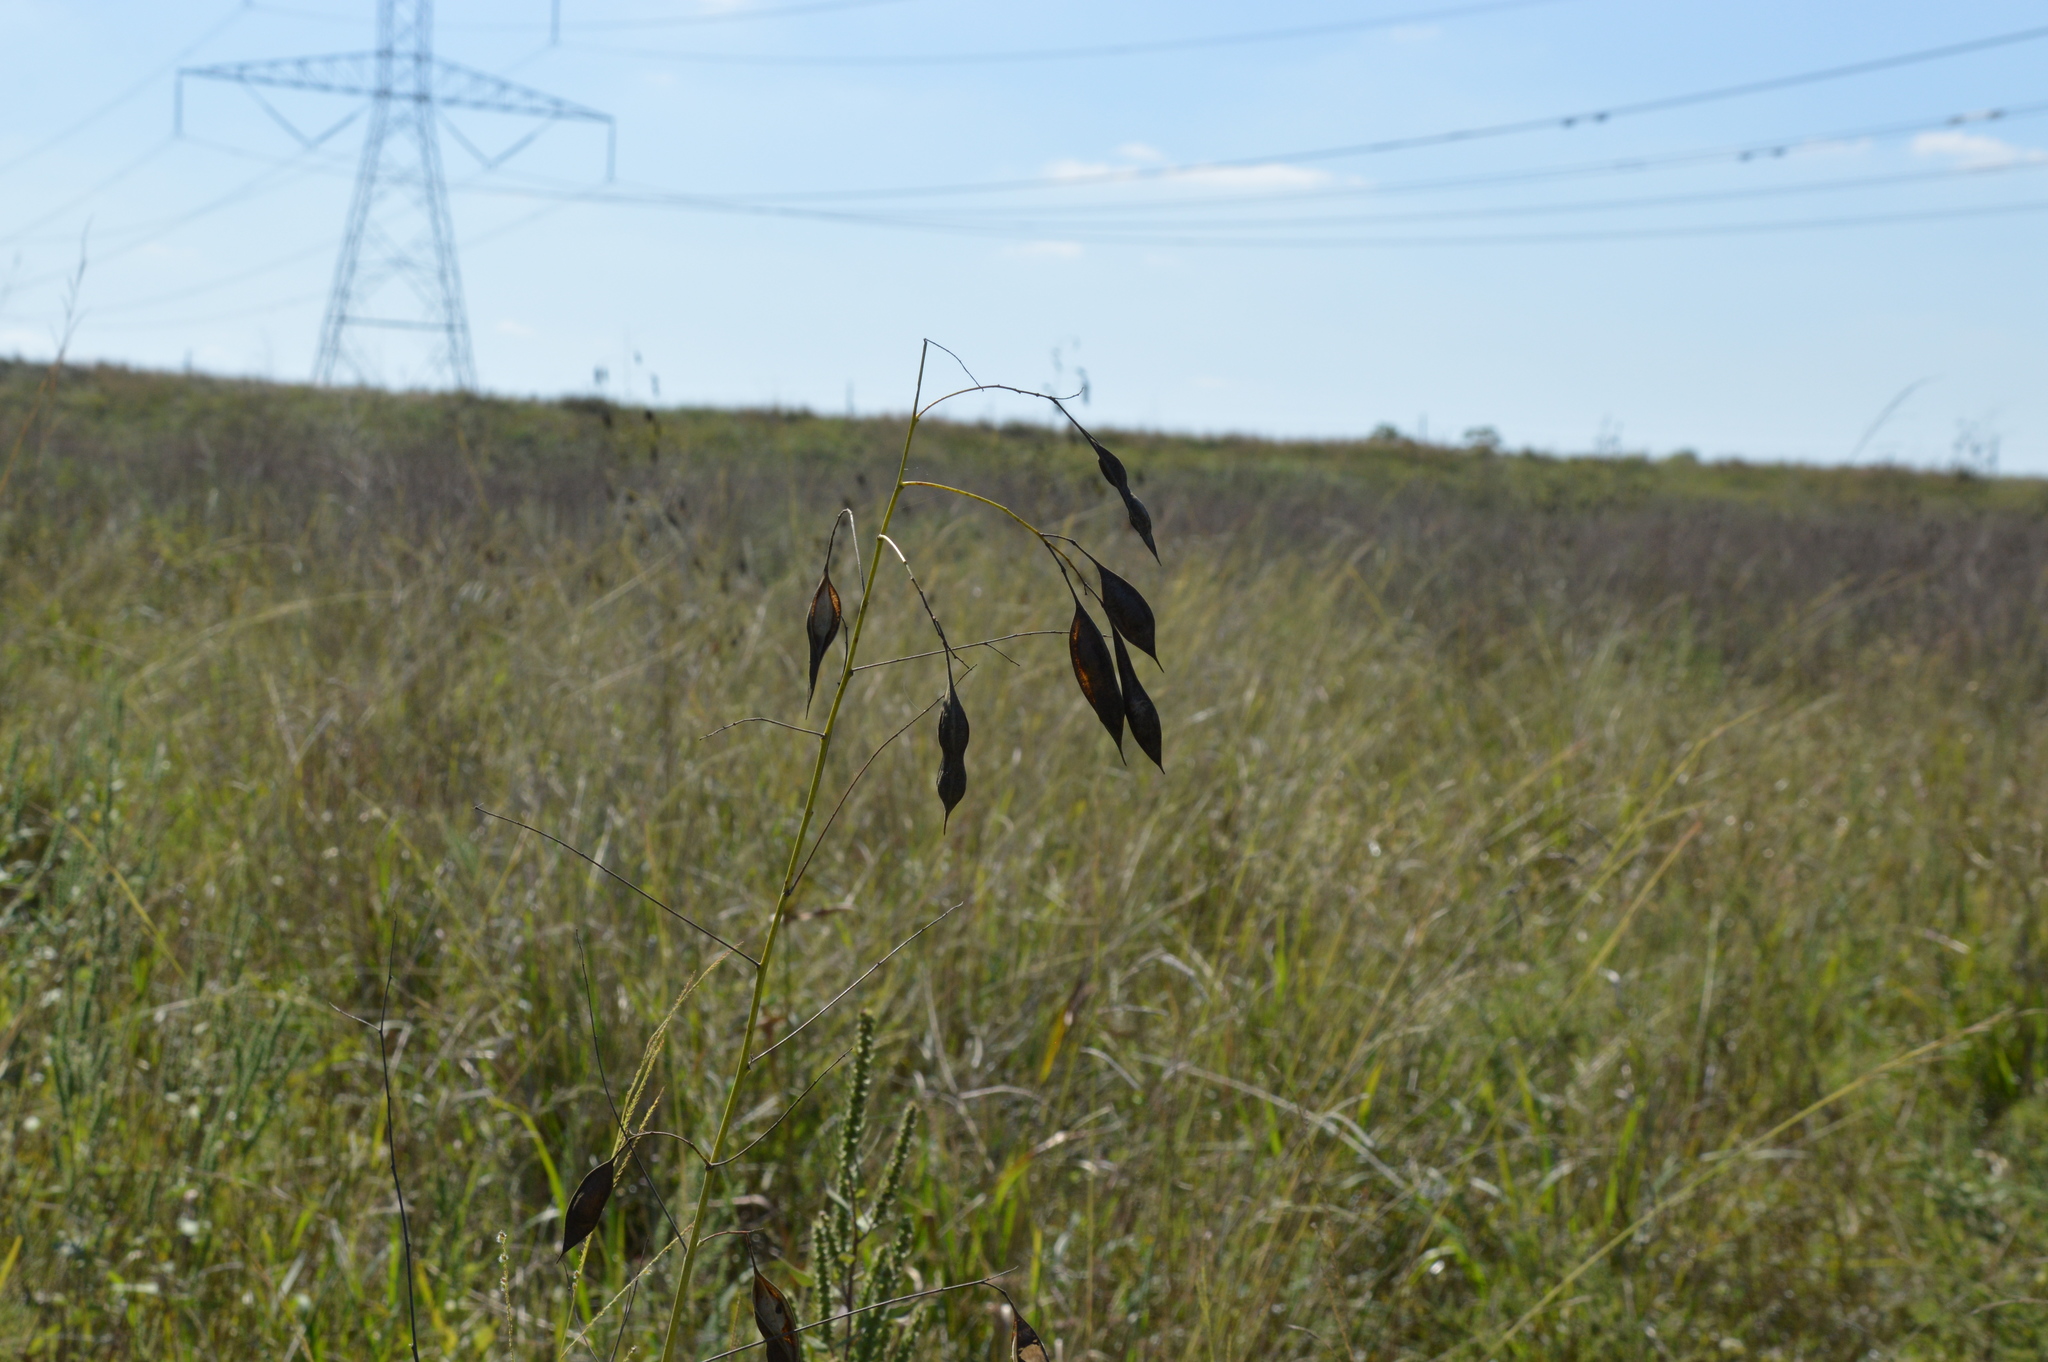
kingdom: Plantae
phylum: Tracheophyta
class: Magnoliopsida
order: Fabales
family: Fabaceae
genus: Sesbania
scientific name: Sesbania vesicaria
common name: Bagpod
